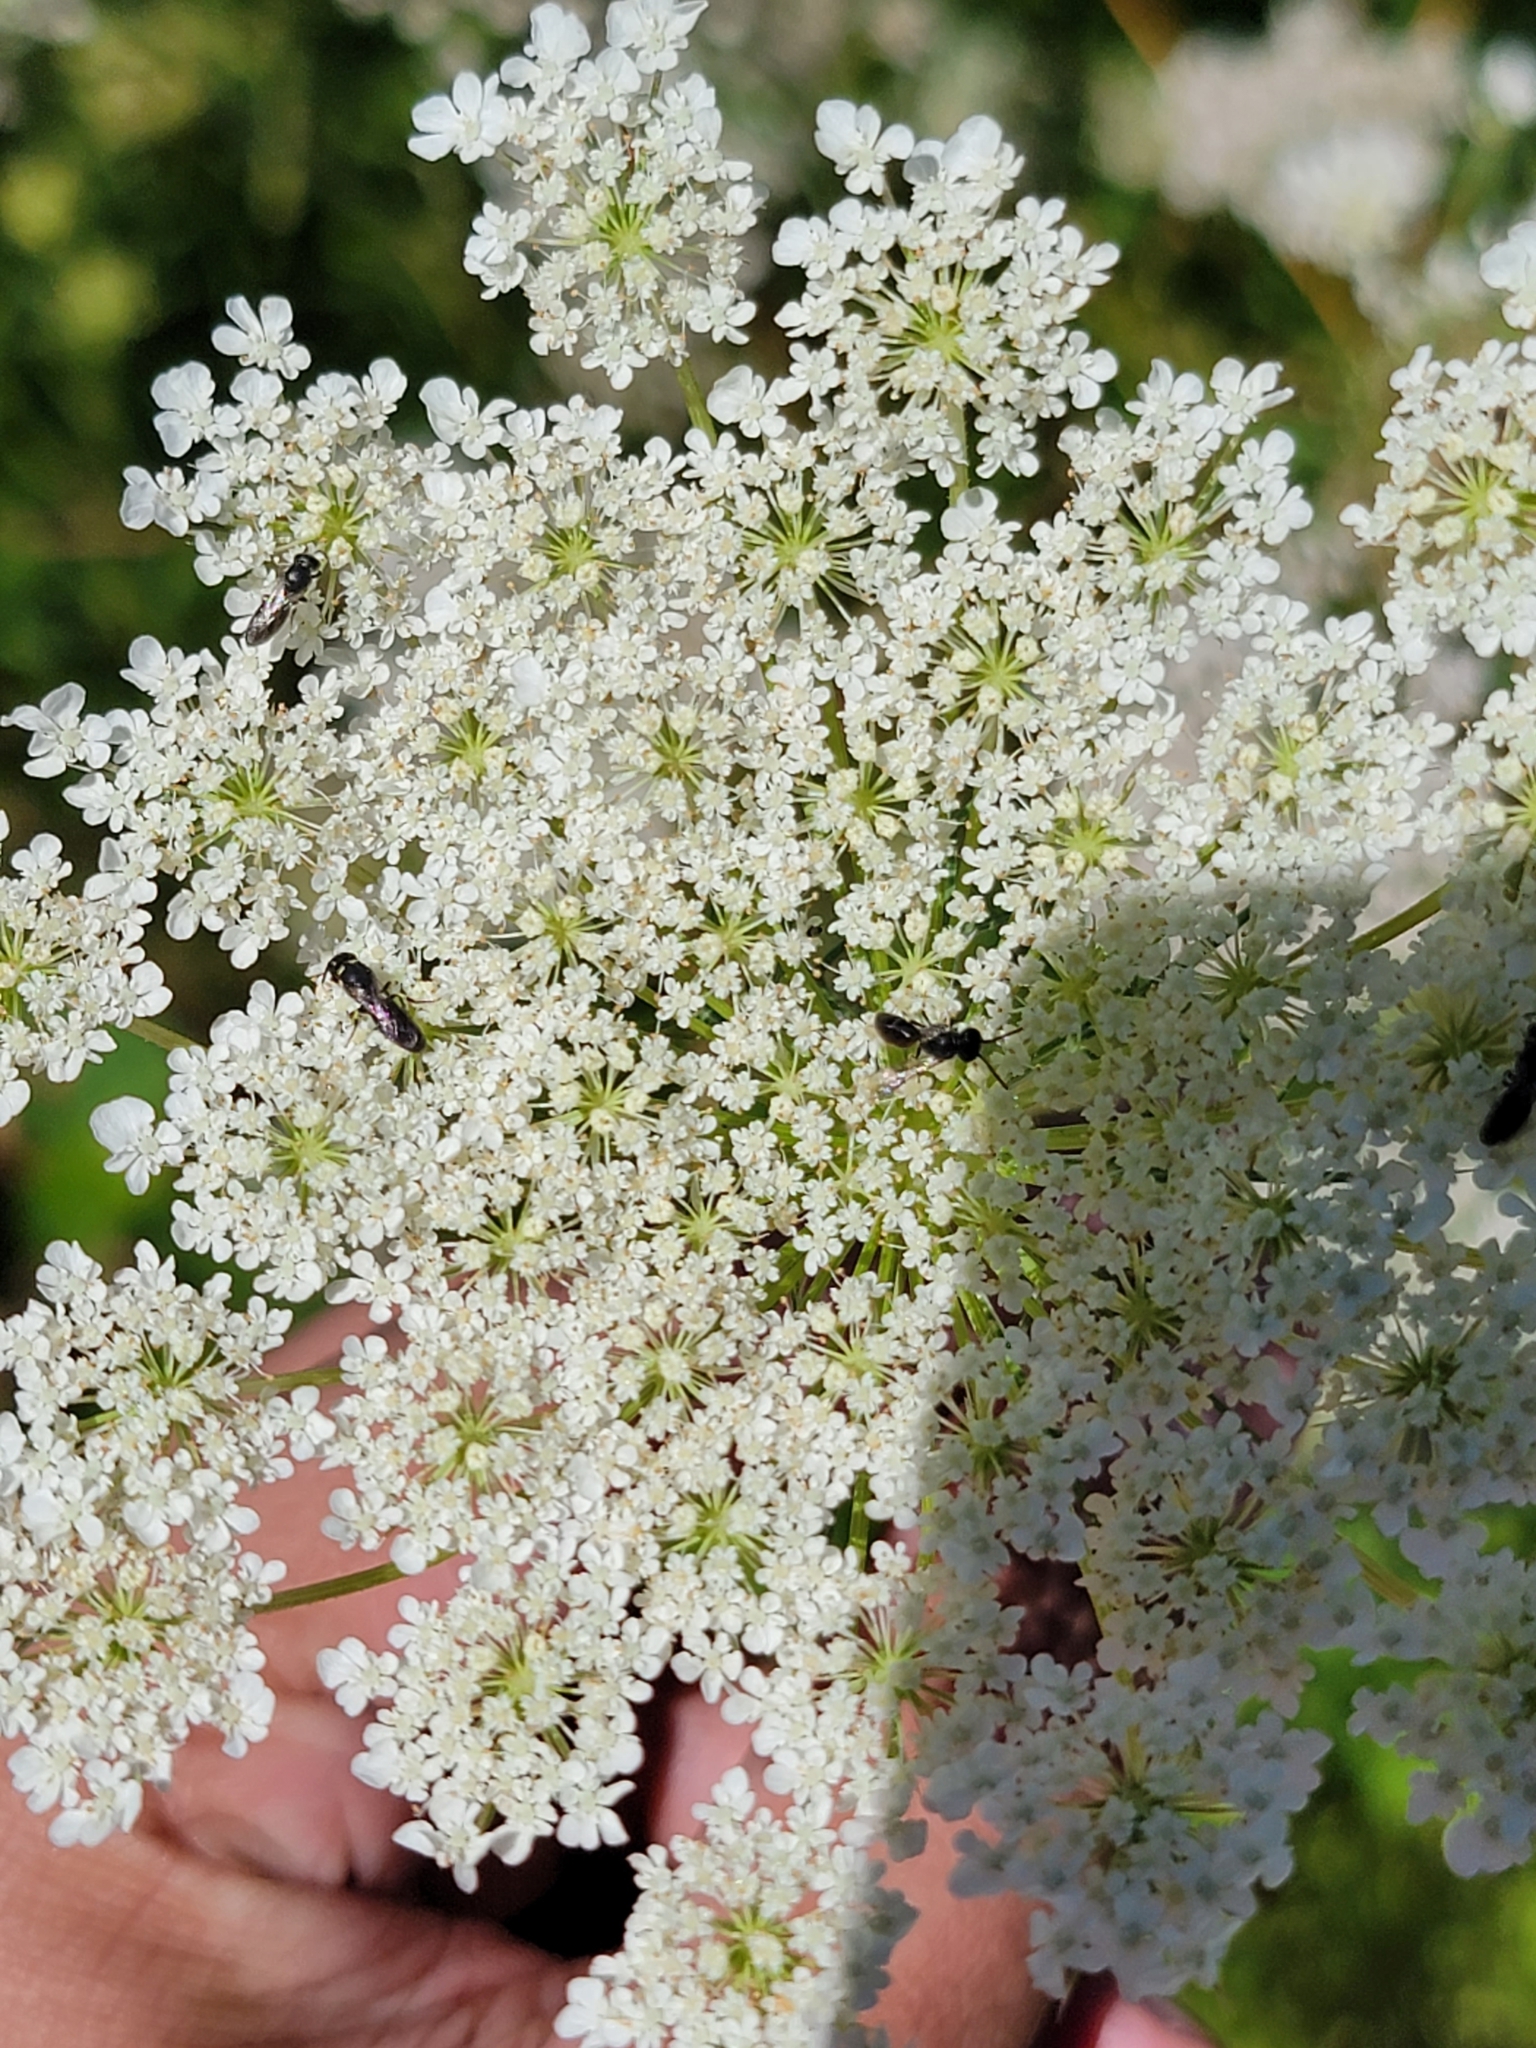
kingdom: Plantae
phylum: Tracheophyta
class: Magnoliopsida
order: Apiales
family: Apiaceae
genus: Daucus
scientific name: Daucus carota
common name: Wild carrot
